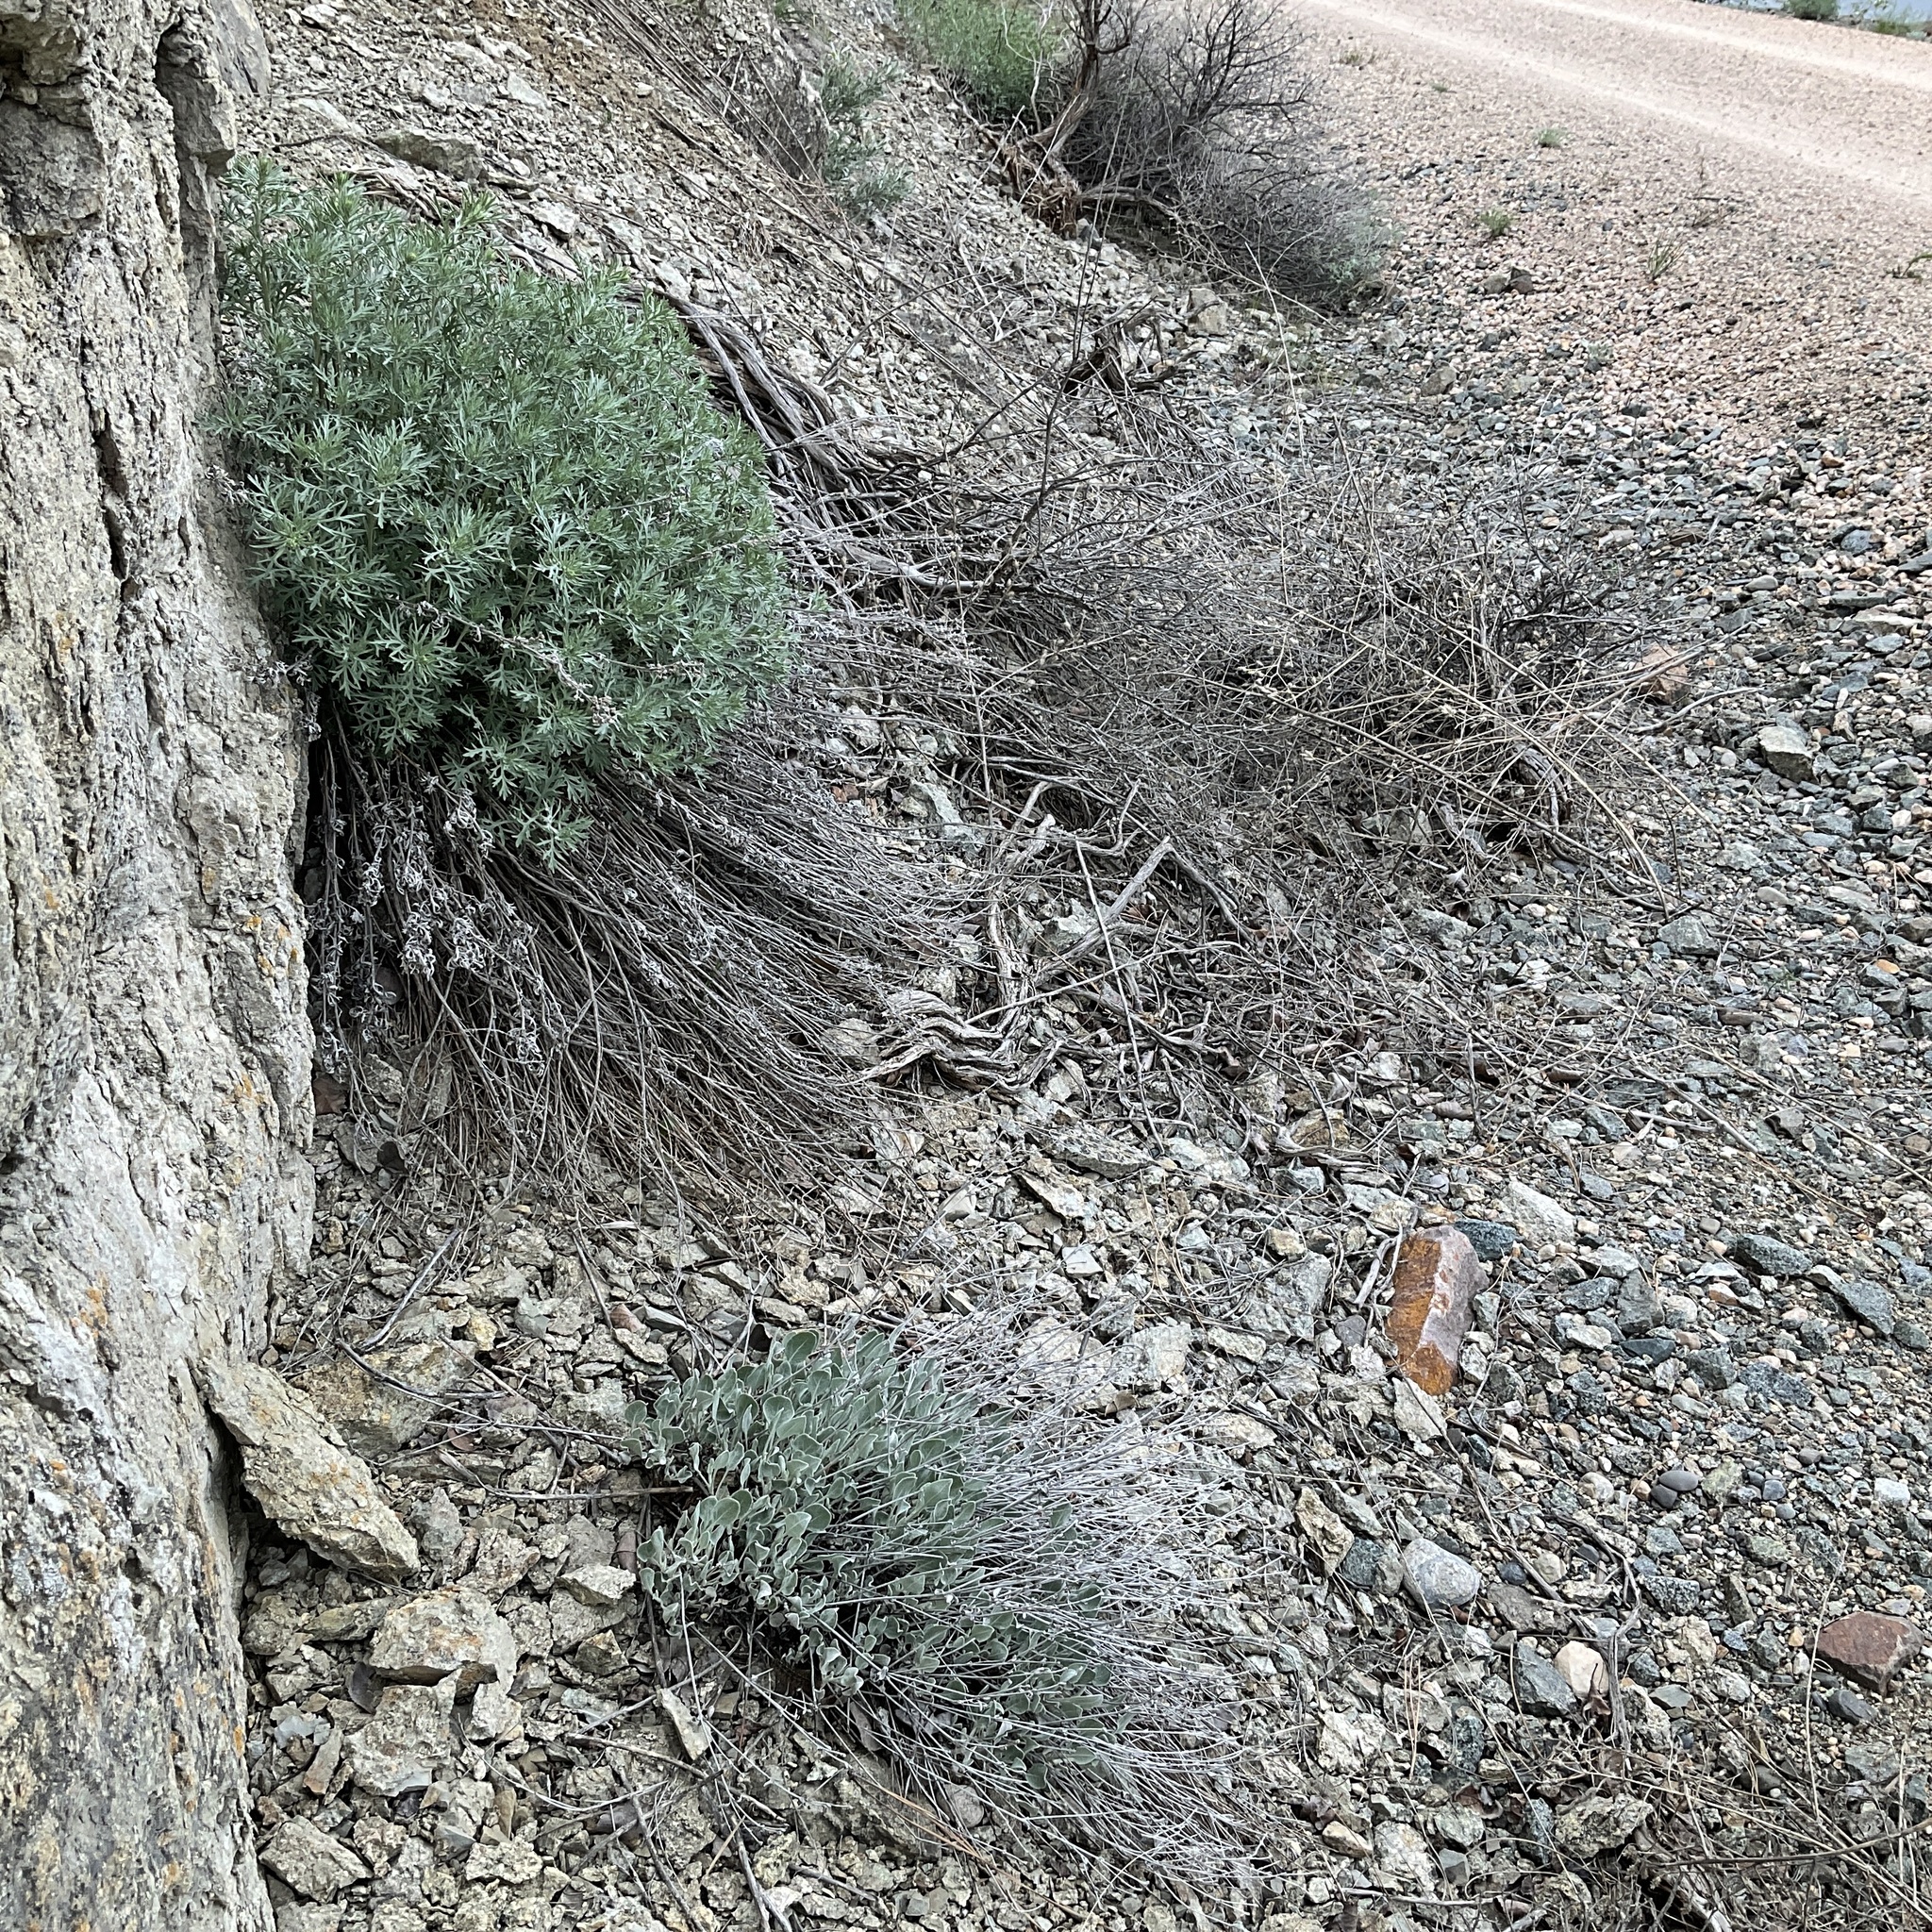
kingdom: Plantae
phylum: Tracheophyta
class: Magnoliopsida
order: Caryophyllales
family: Polygonaceae
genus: Eriogonum
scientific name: Eriogonum niveum
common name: Snow wild buckwheat
